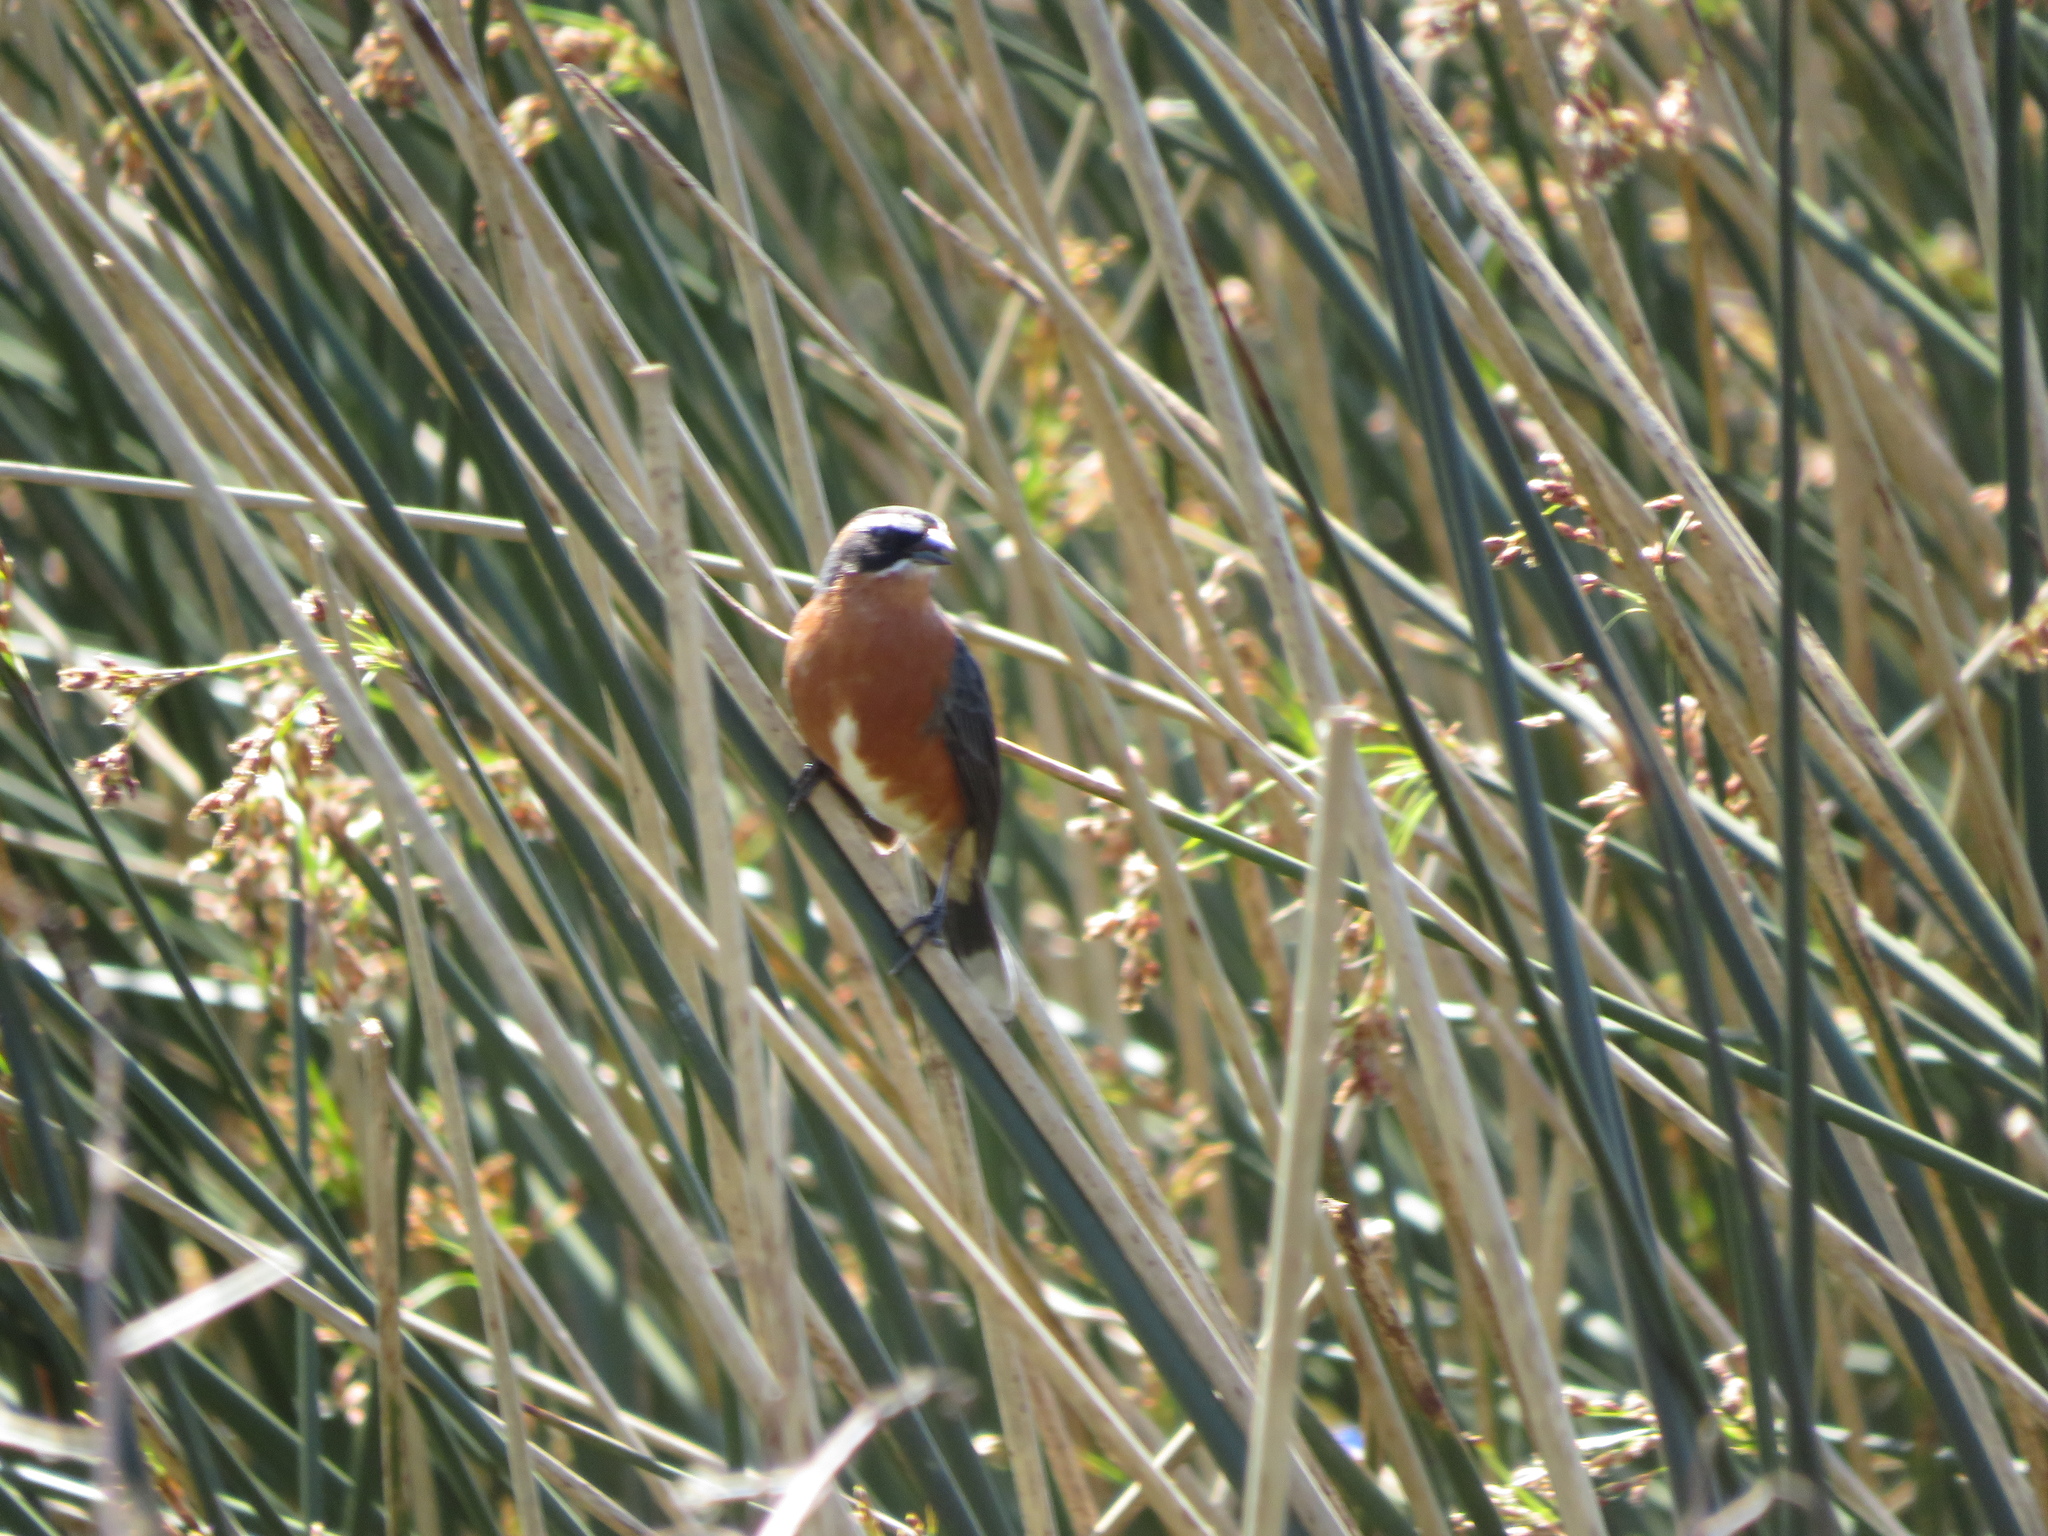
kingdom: Animalia
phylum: Chordata
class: Aves
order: Passeriformes
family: Thraupidae
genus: Poospiza
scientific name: Poospiza nigrorufa
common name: Black-and-rufous warbling finch
